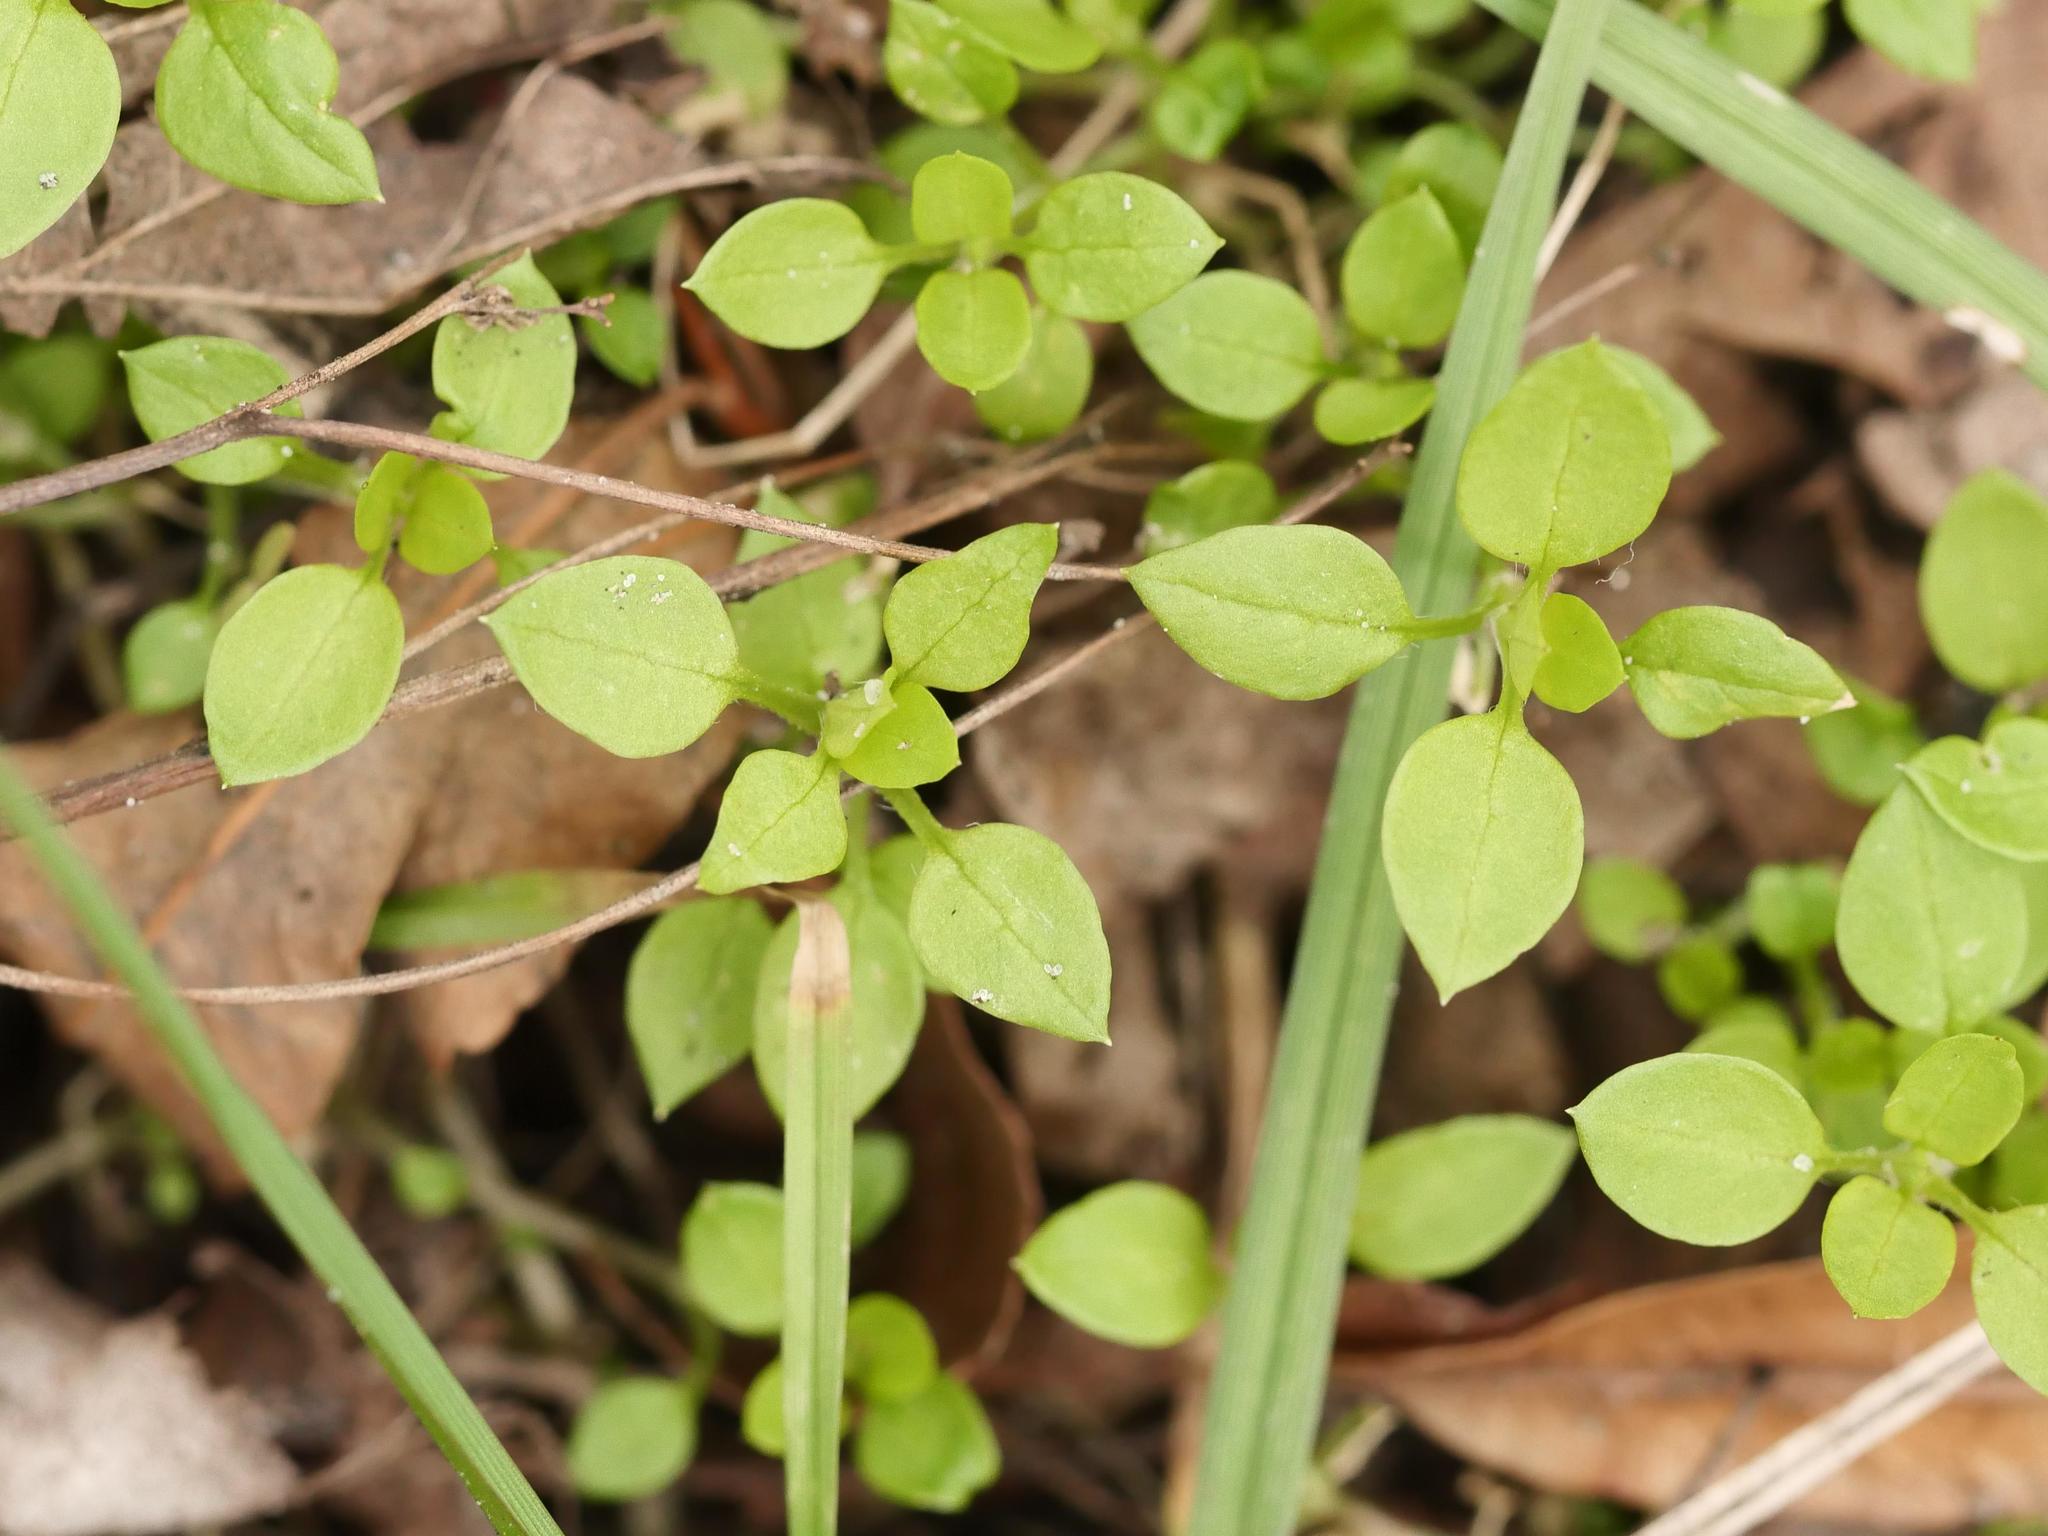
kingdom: Plantae
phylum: Tracheophyta
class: Magnoliopsida
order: Caryophyllales
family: Caryophyllaceae
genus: Stellaria
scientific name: Stellaria media
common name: Common chickweed
